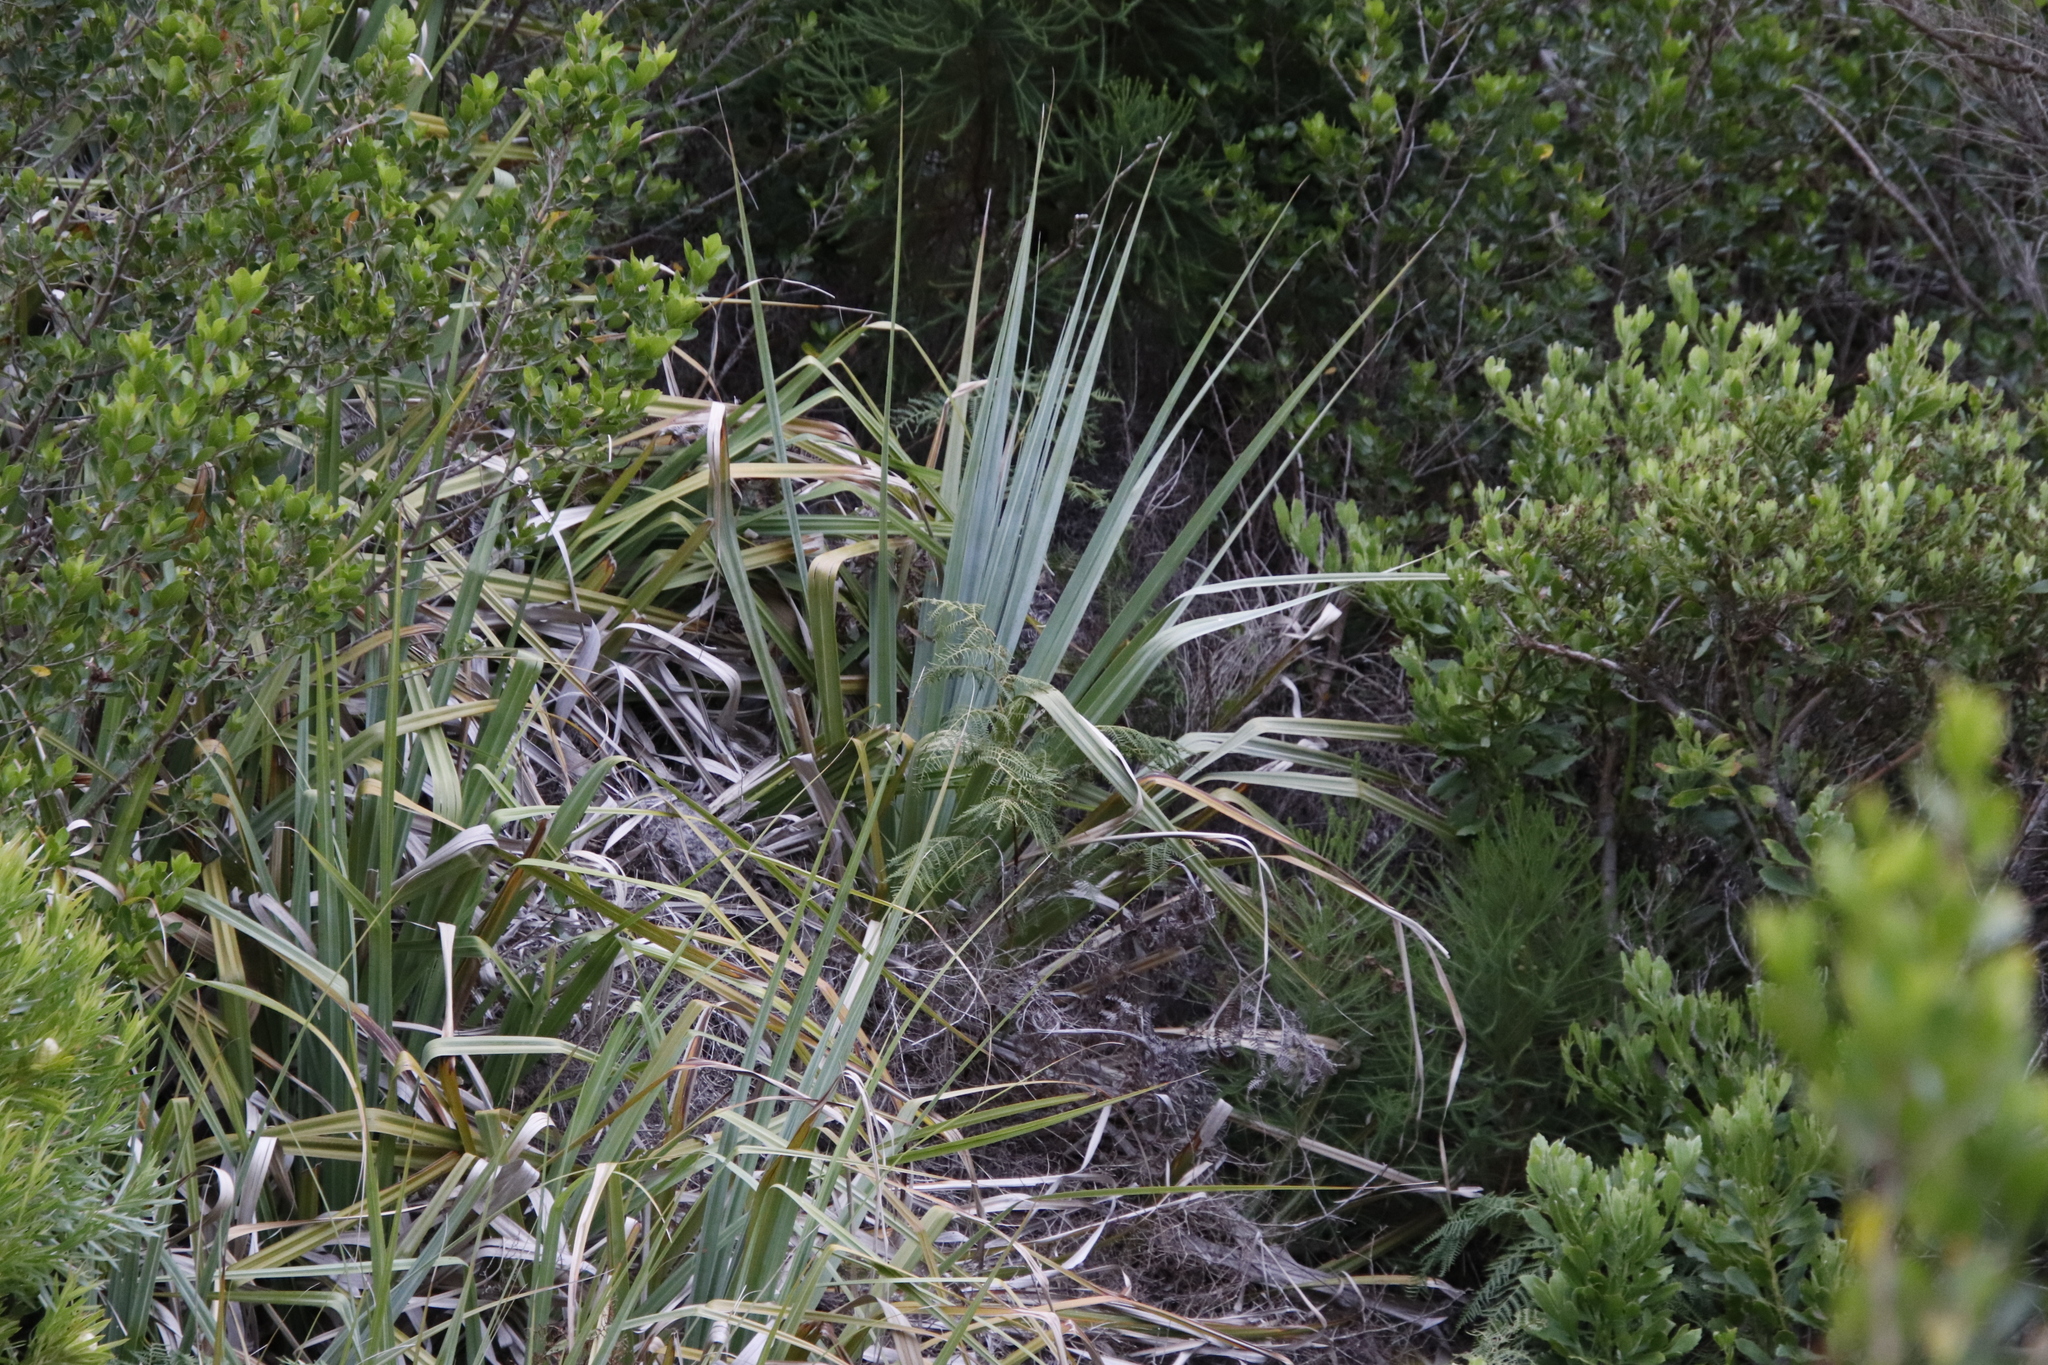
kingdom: Plantae
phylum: Tracheophyta
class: Liliopsida
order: Poales
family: Thurniaceae
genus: Prionium
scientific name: Prionium serratum
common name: Palmiet
